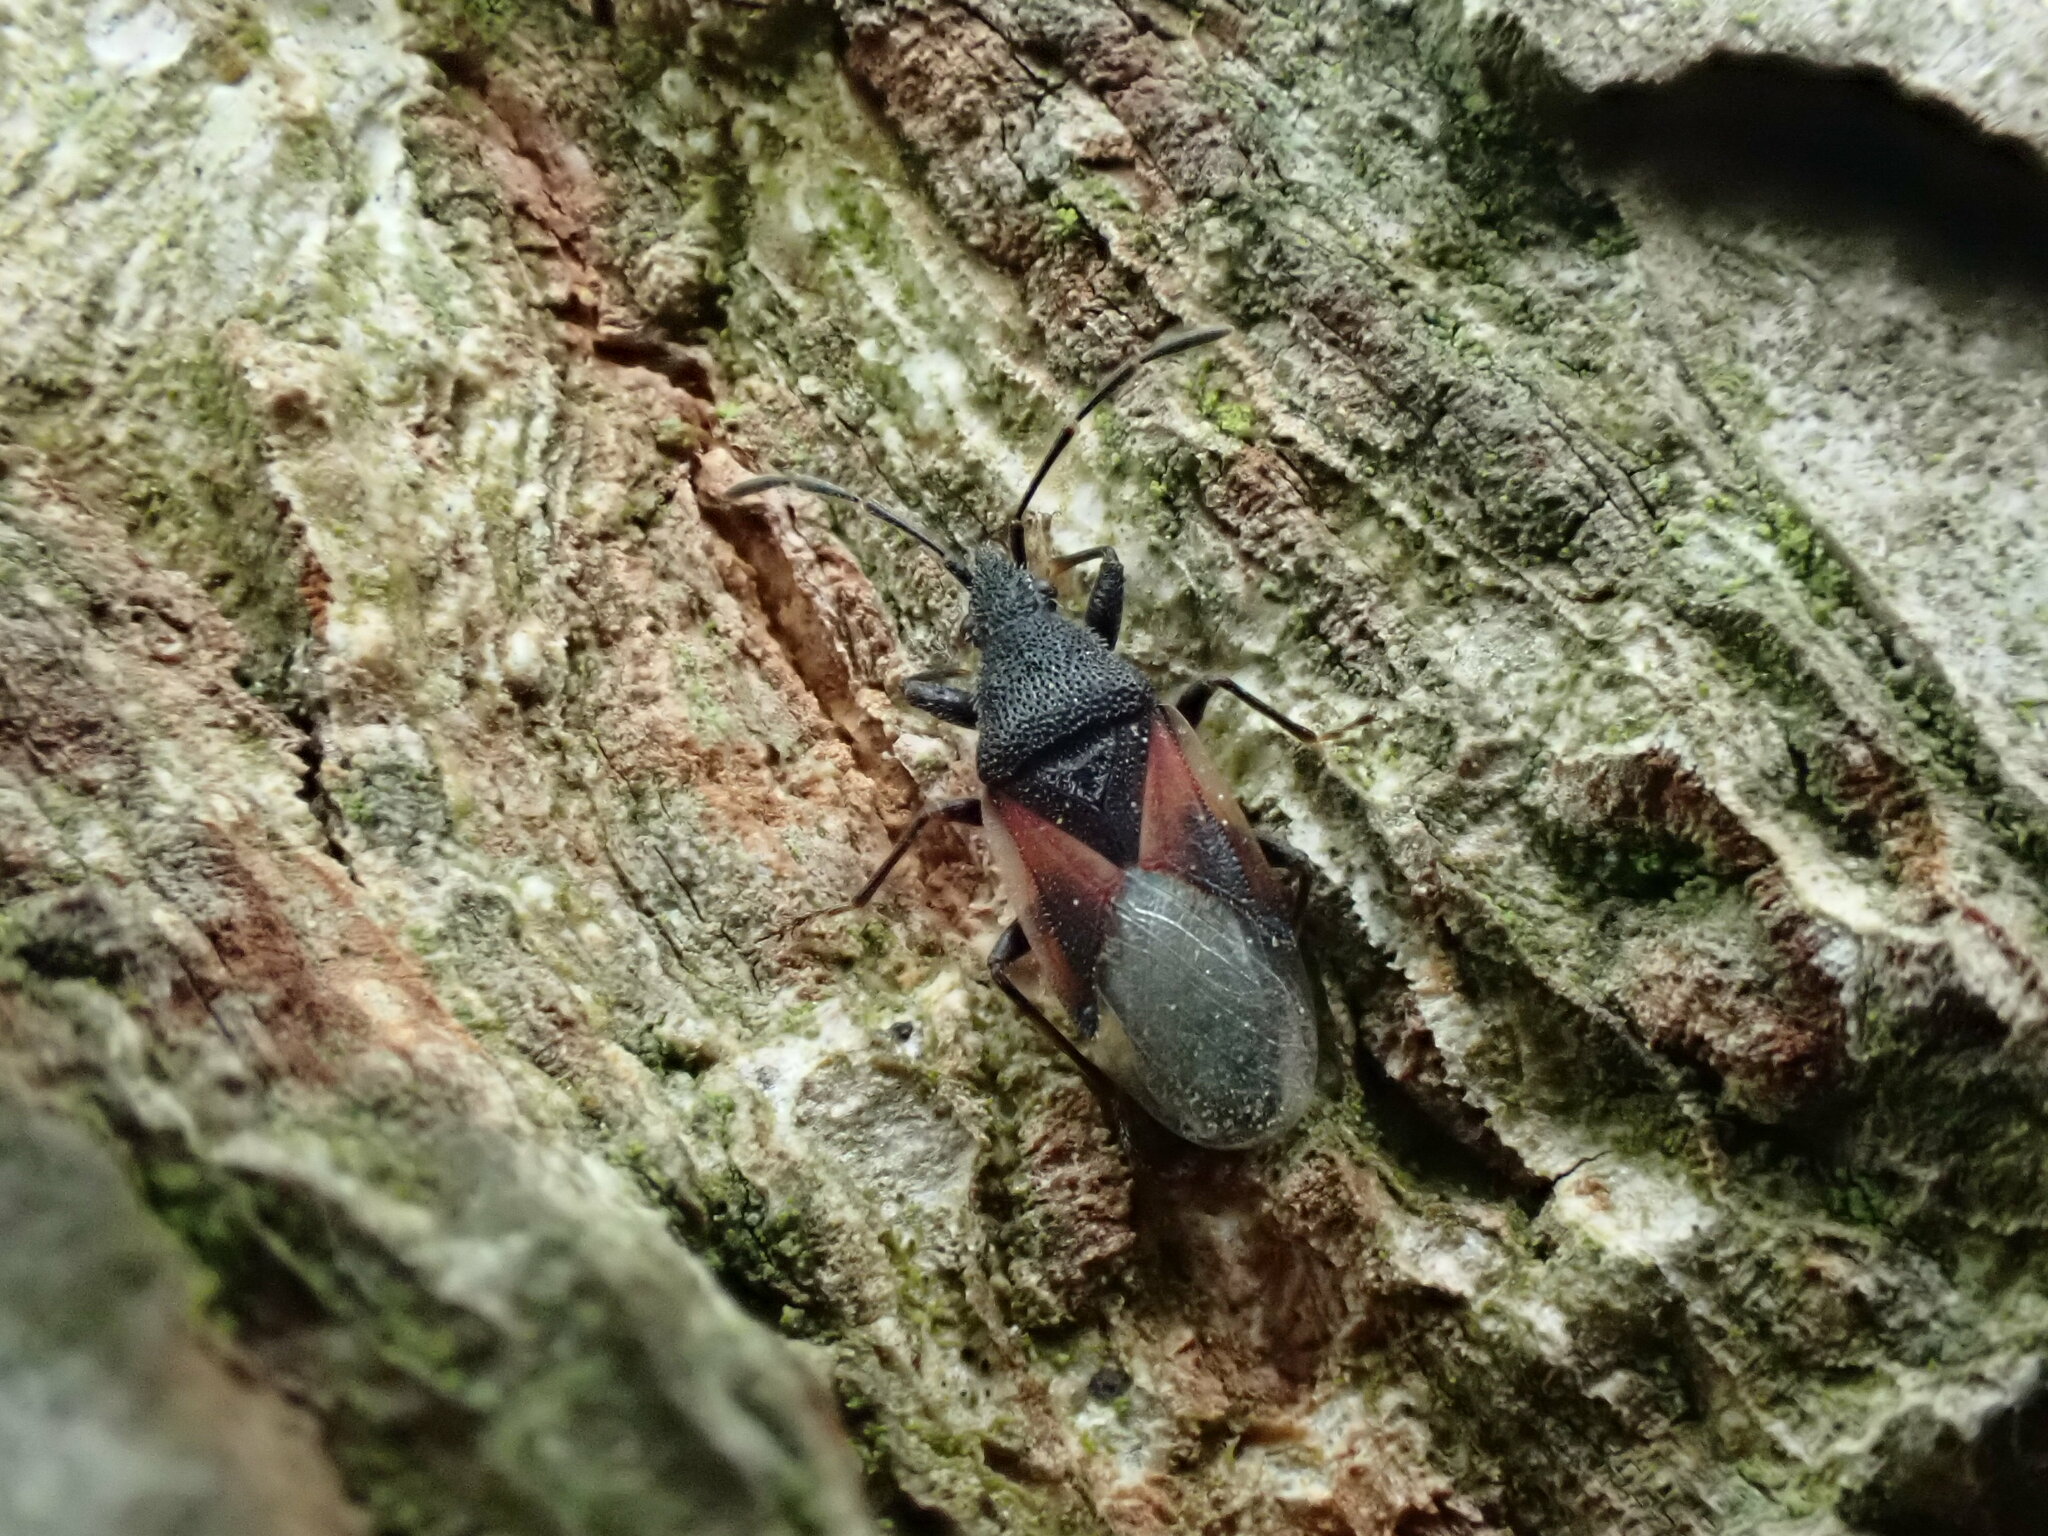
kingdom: Animalia
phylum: Arthropoda
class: Insecta
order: Hemiptera
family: Oxycarenidae
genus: Oxycarenus
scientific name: Oxycarenus lavaterae
